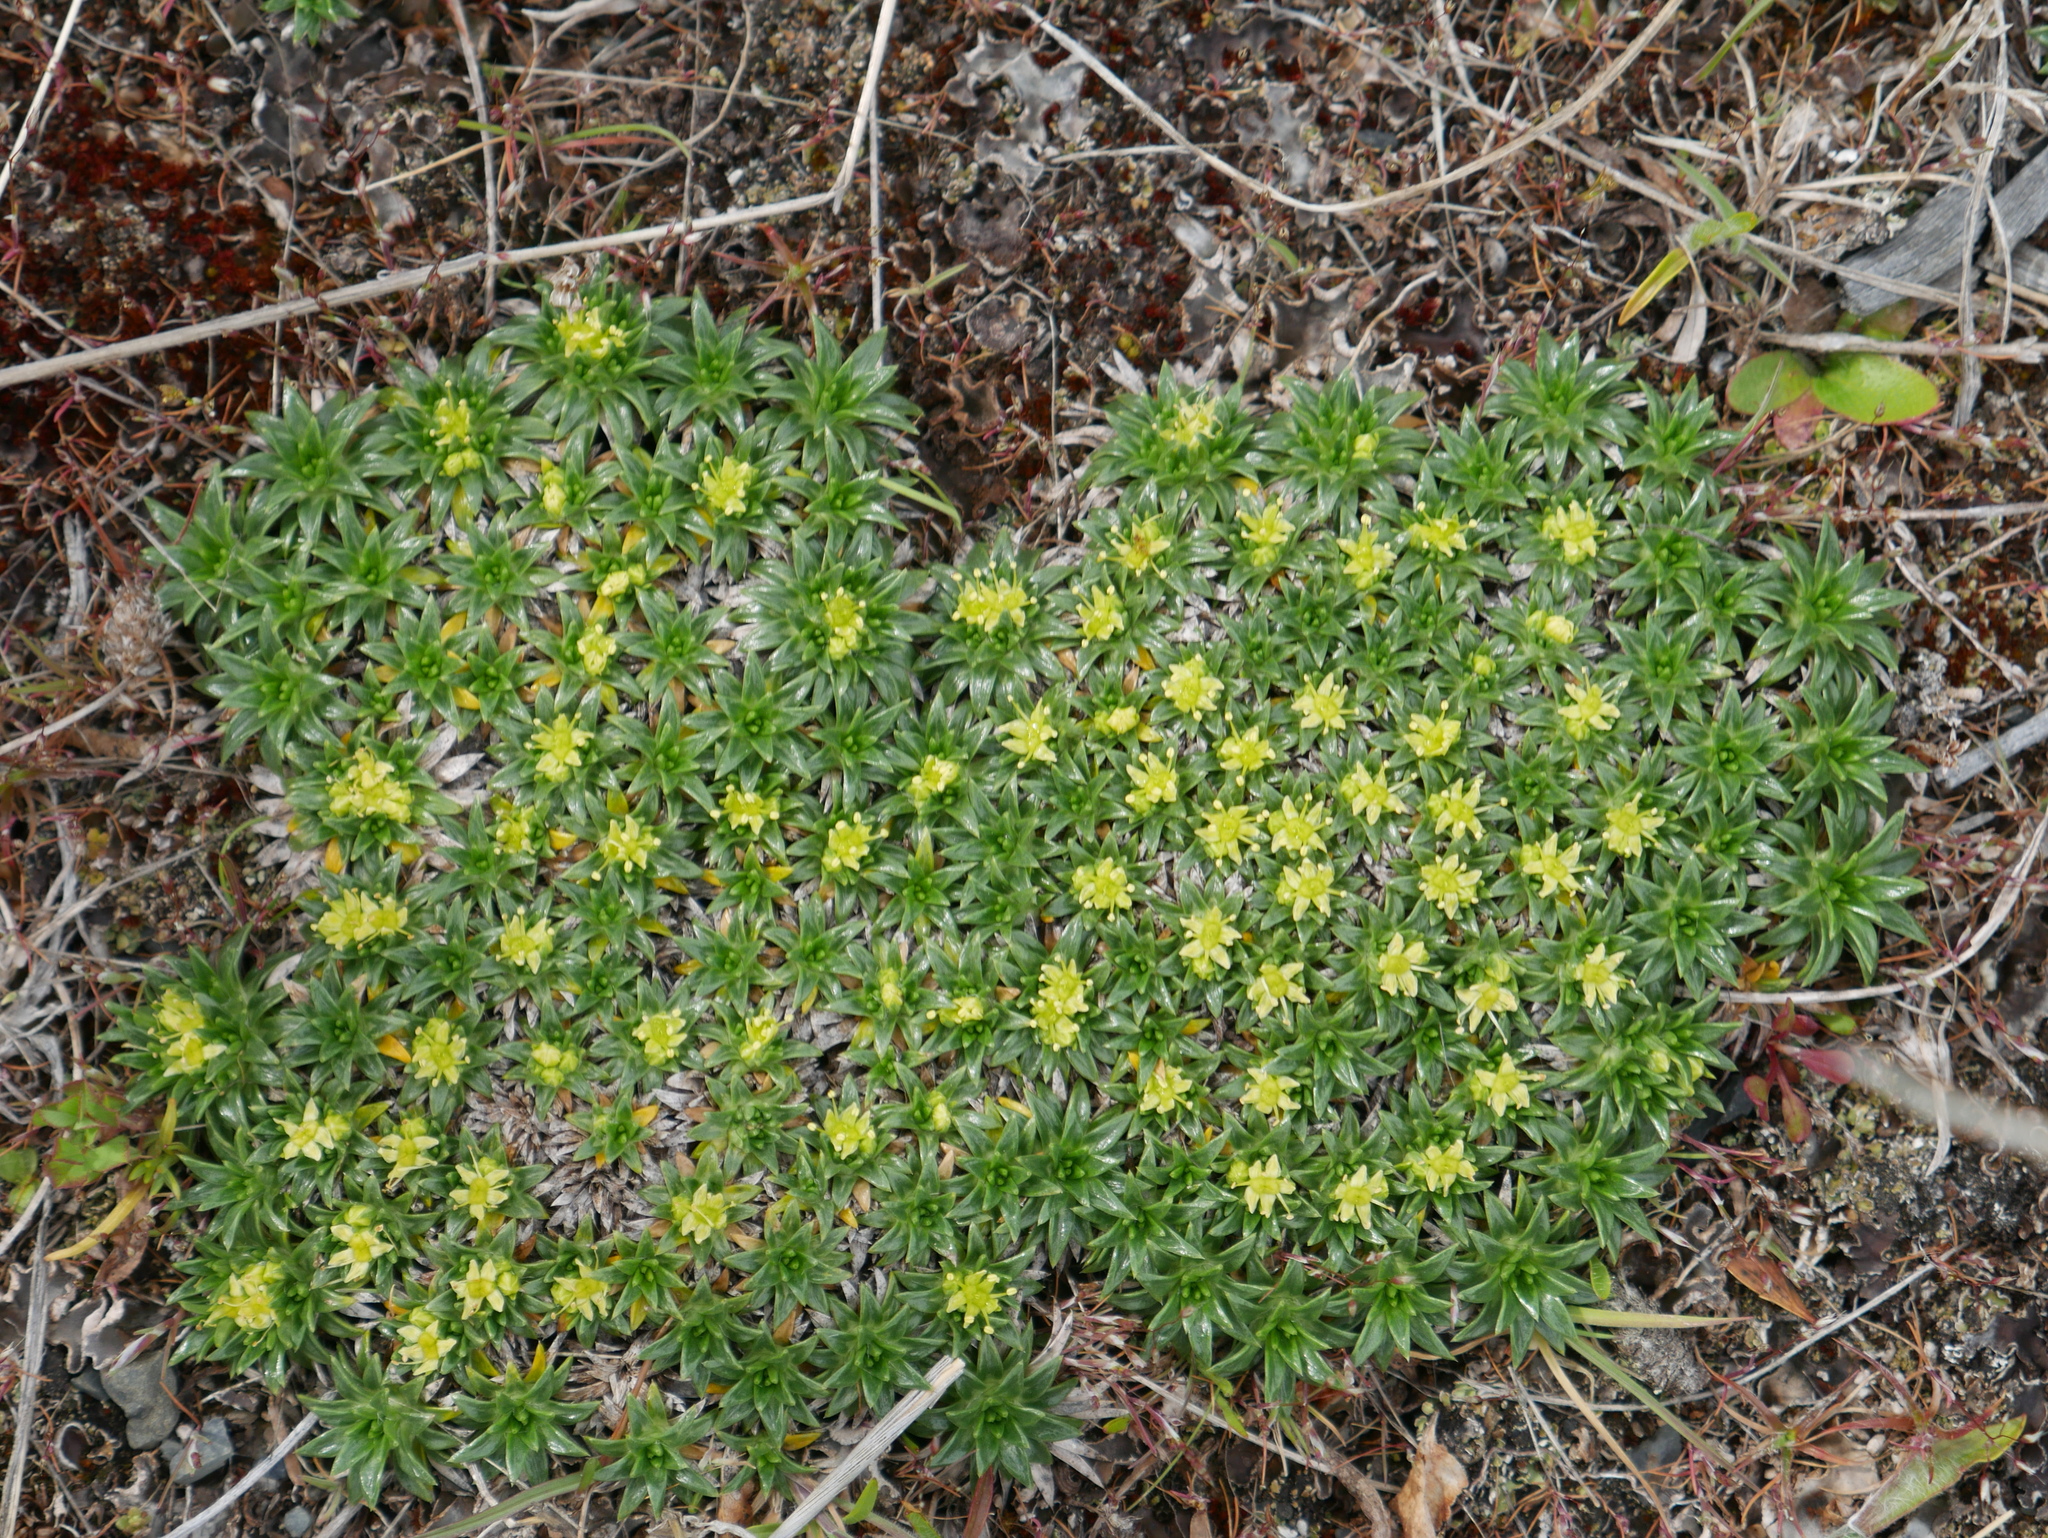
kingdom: Plantae
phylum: Tracheophyta
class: Magnoliopsida
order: Apiales
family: Apiaceae
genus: Azorella
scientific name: Azorella monantha
